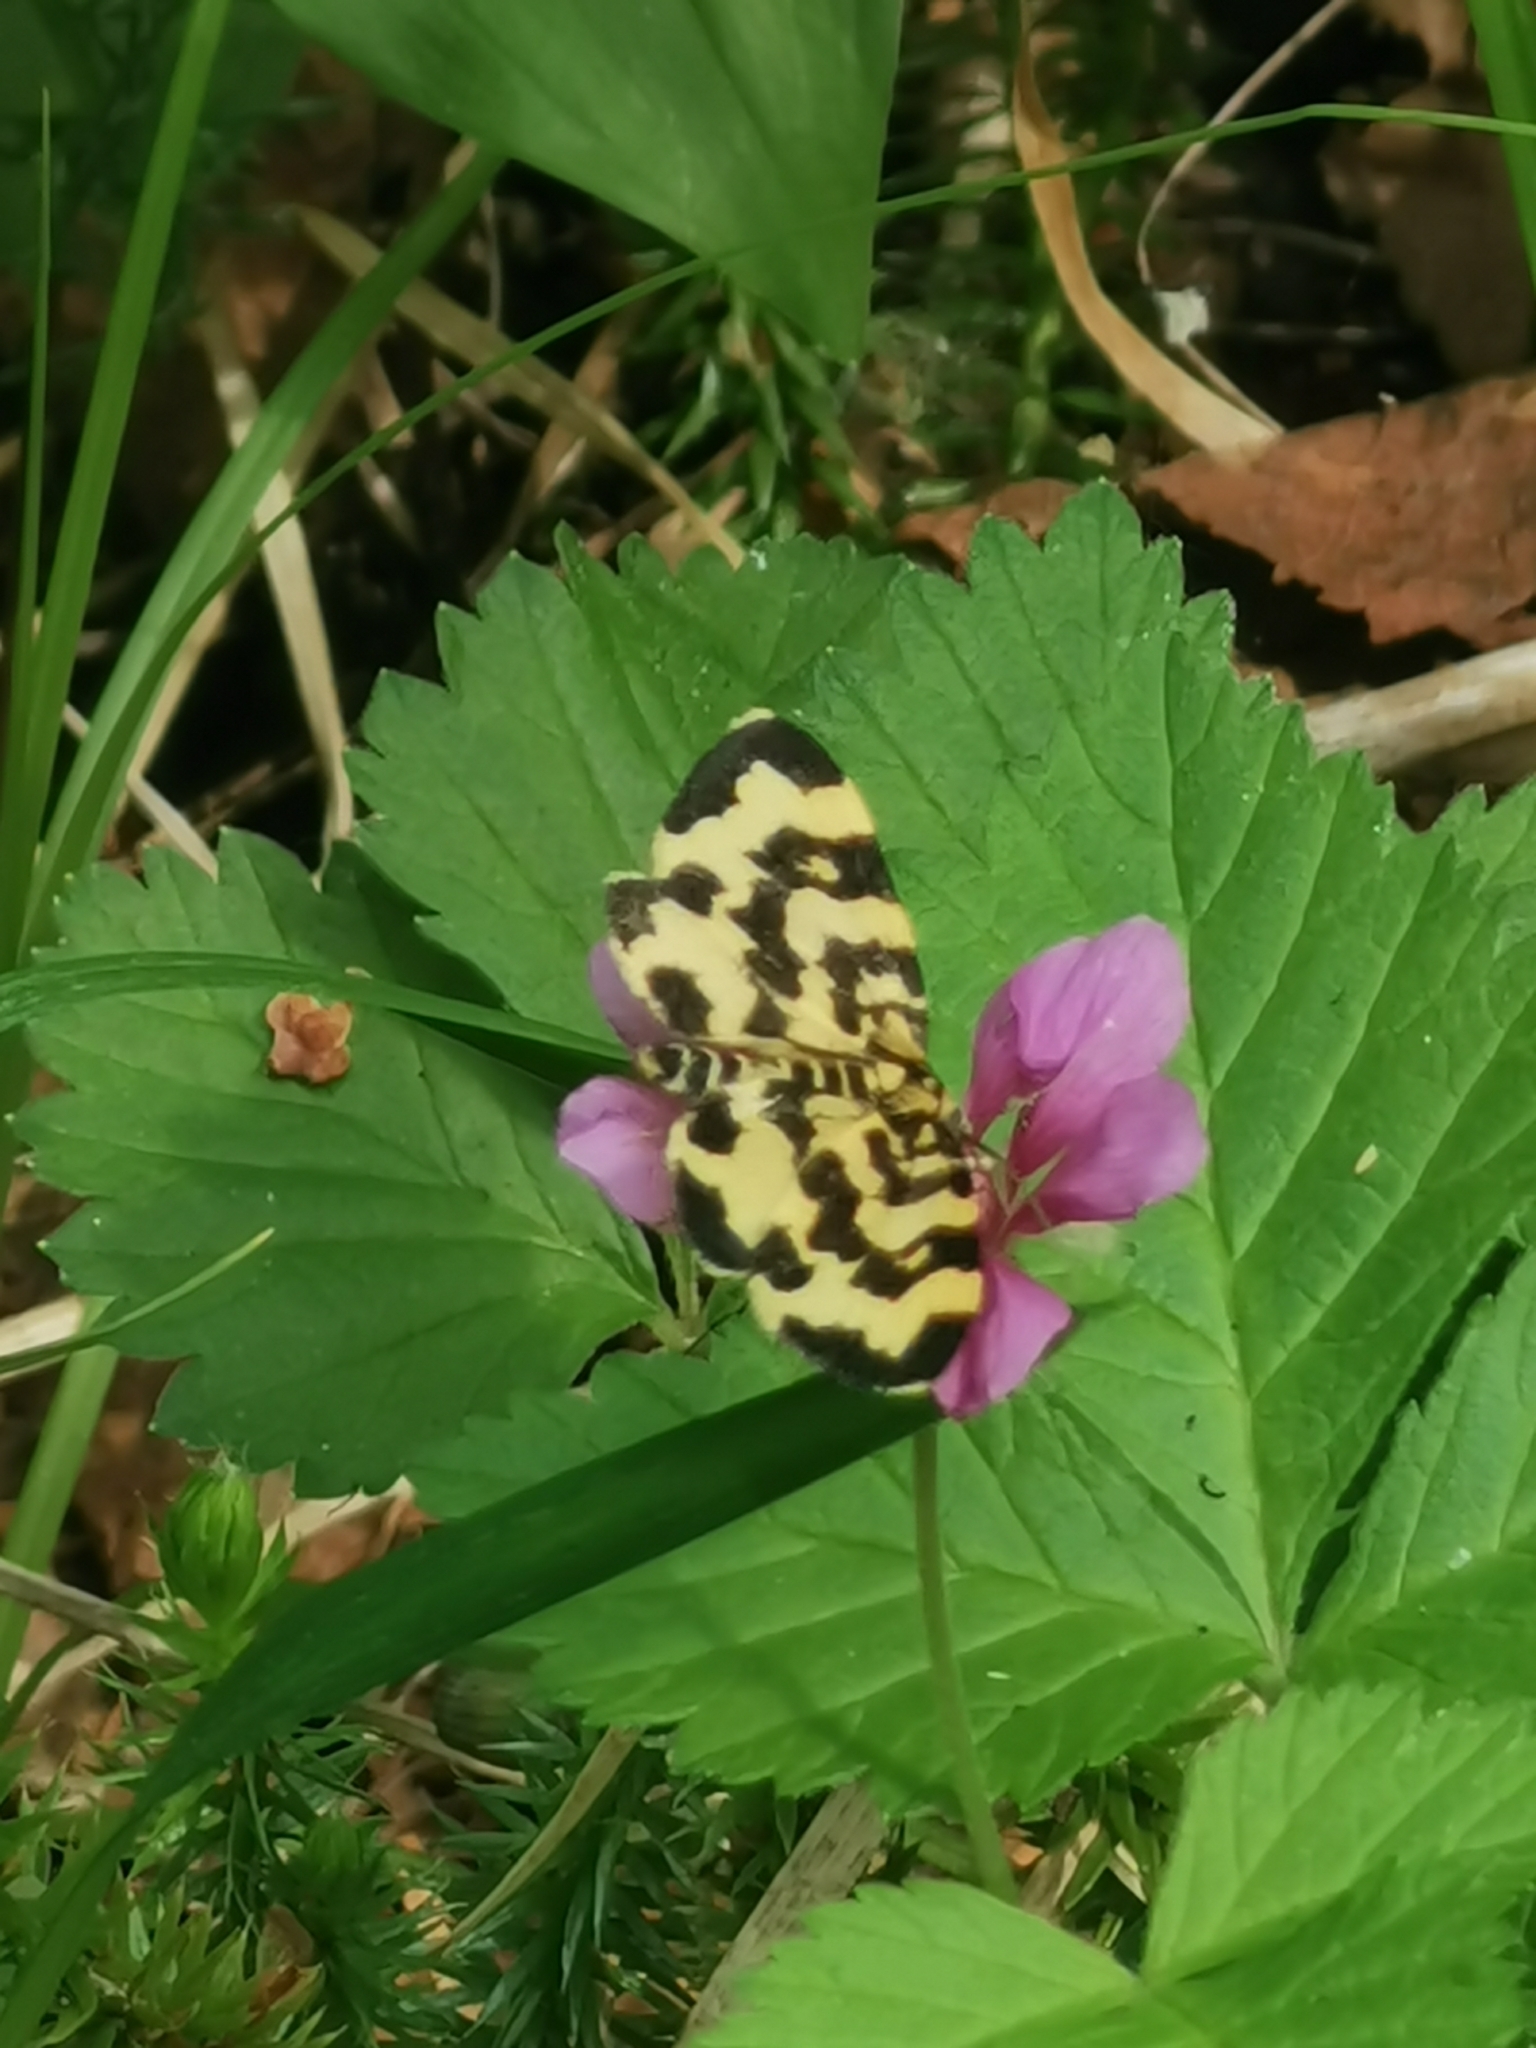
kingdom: Animalia
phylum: Arthropoda
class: Insecta
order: Lepidoptera
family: Geometridae
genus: Polythrena
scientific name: Polythrena coloraria
